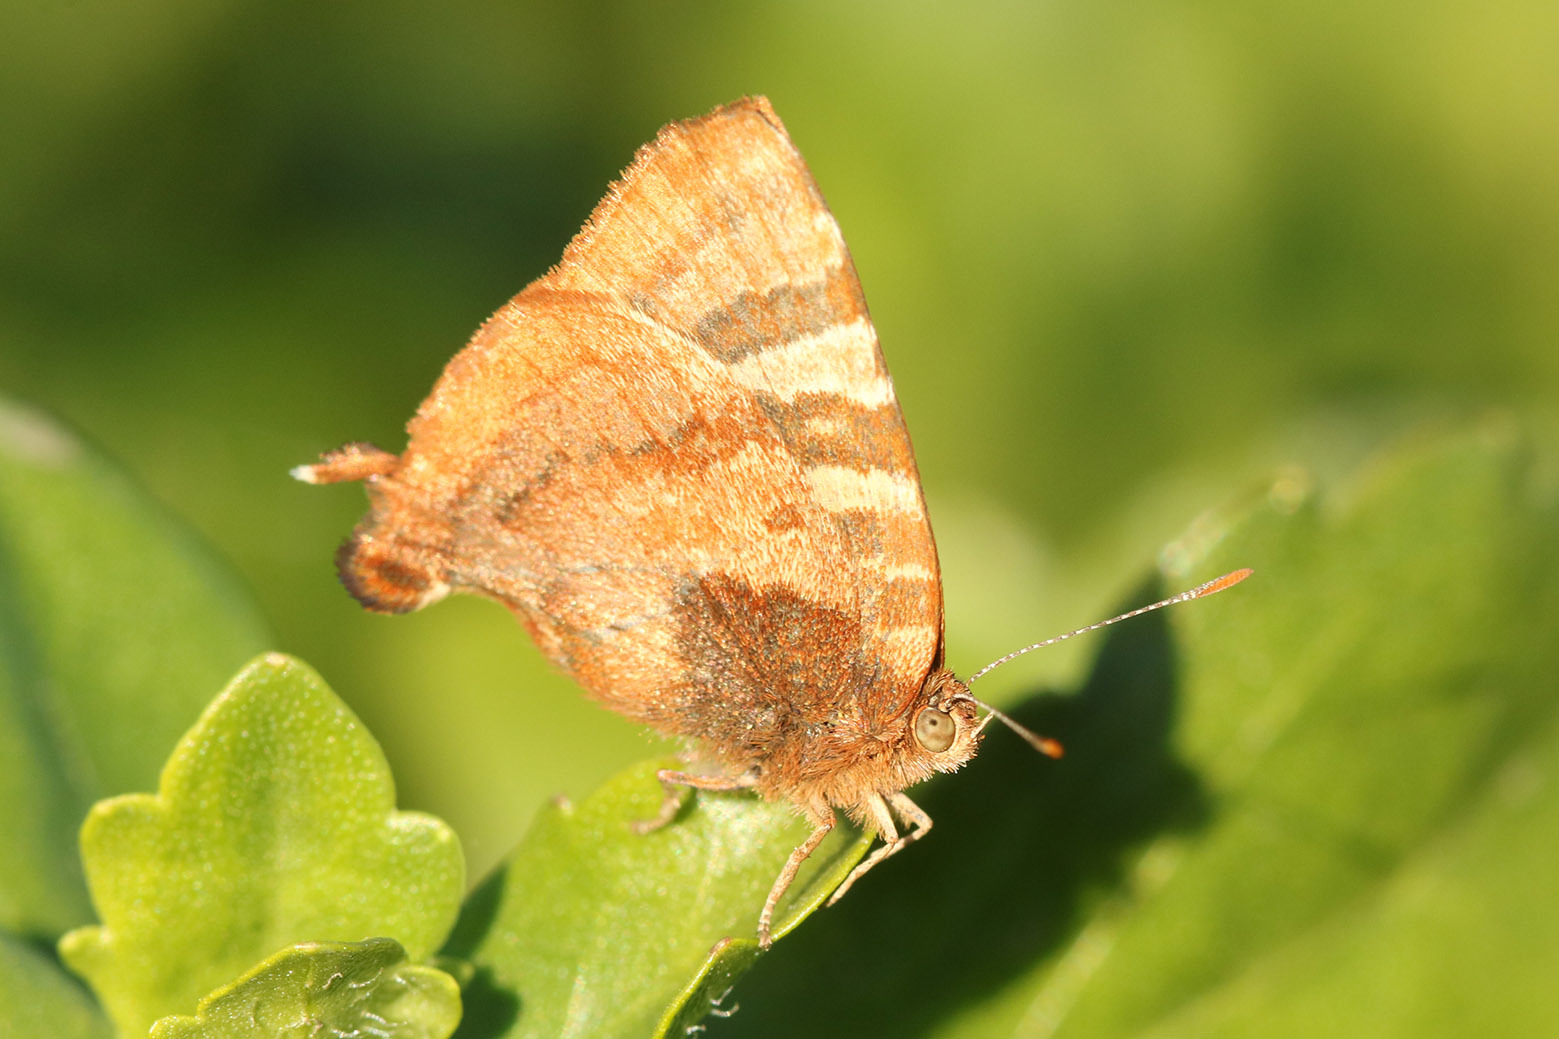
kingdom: Animalia
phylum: Arthropoda
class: Insecta
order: Lepidoptera
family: Lycaenidae
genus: Arawacus
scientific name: Arawacus ellida
